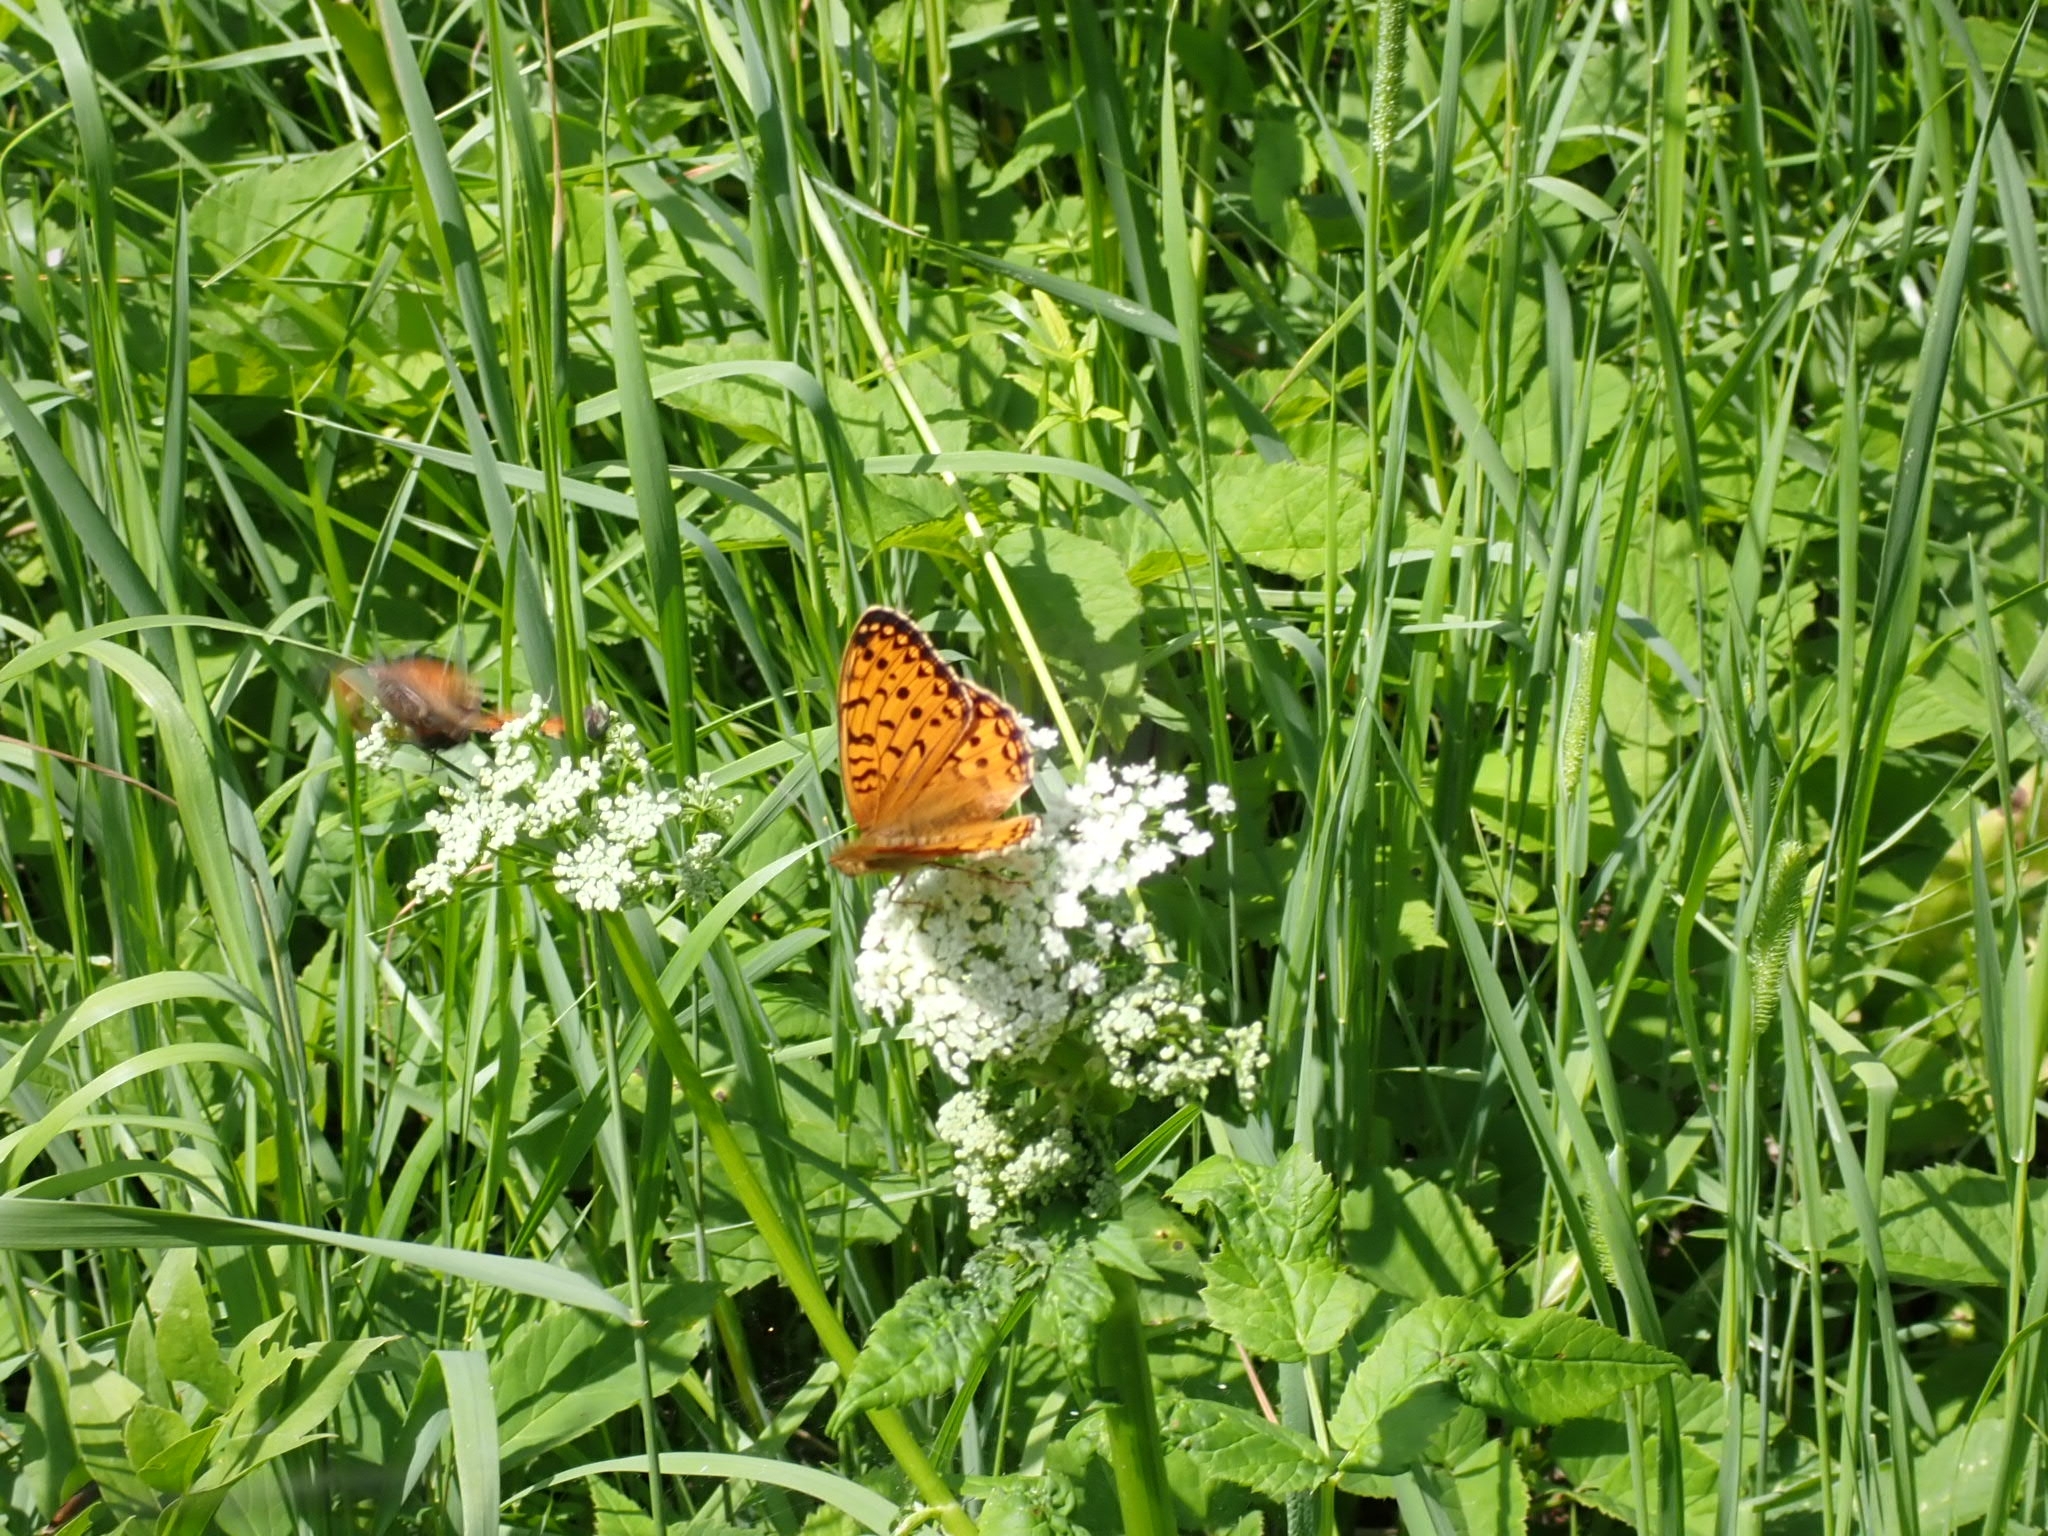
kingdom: Animalia
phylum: Arthropoda
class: Insecta
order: Lepidoptera
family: Nymphalidae
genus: Speyeria
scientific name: Speyeria aglaja
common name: Dark green fritillary
